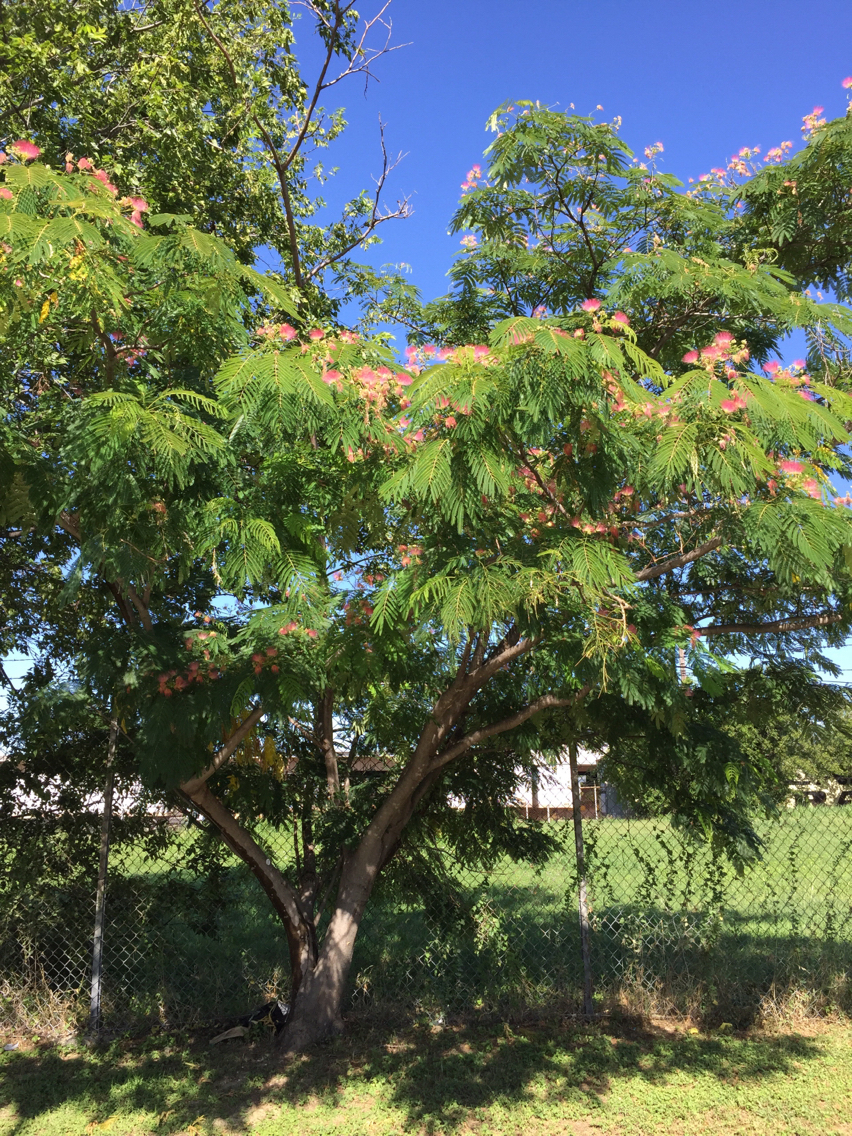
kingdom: Plantae
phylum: Tracheophyta
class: Magnoliopsida
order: Fabales
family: Fabaceae
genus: Albizia
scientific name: Albizia julibrissin
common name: Silktree
